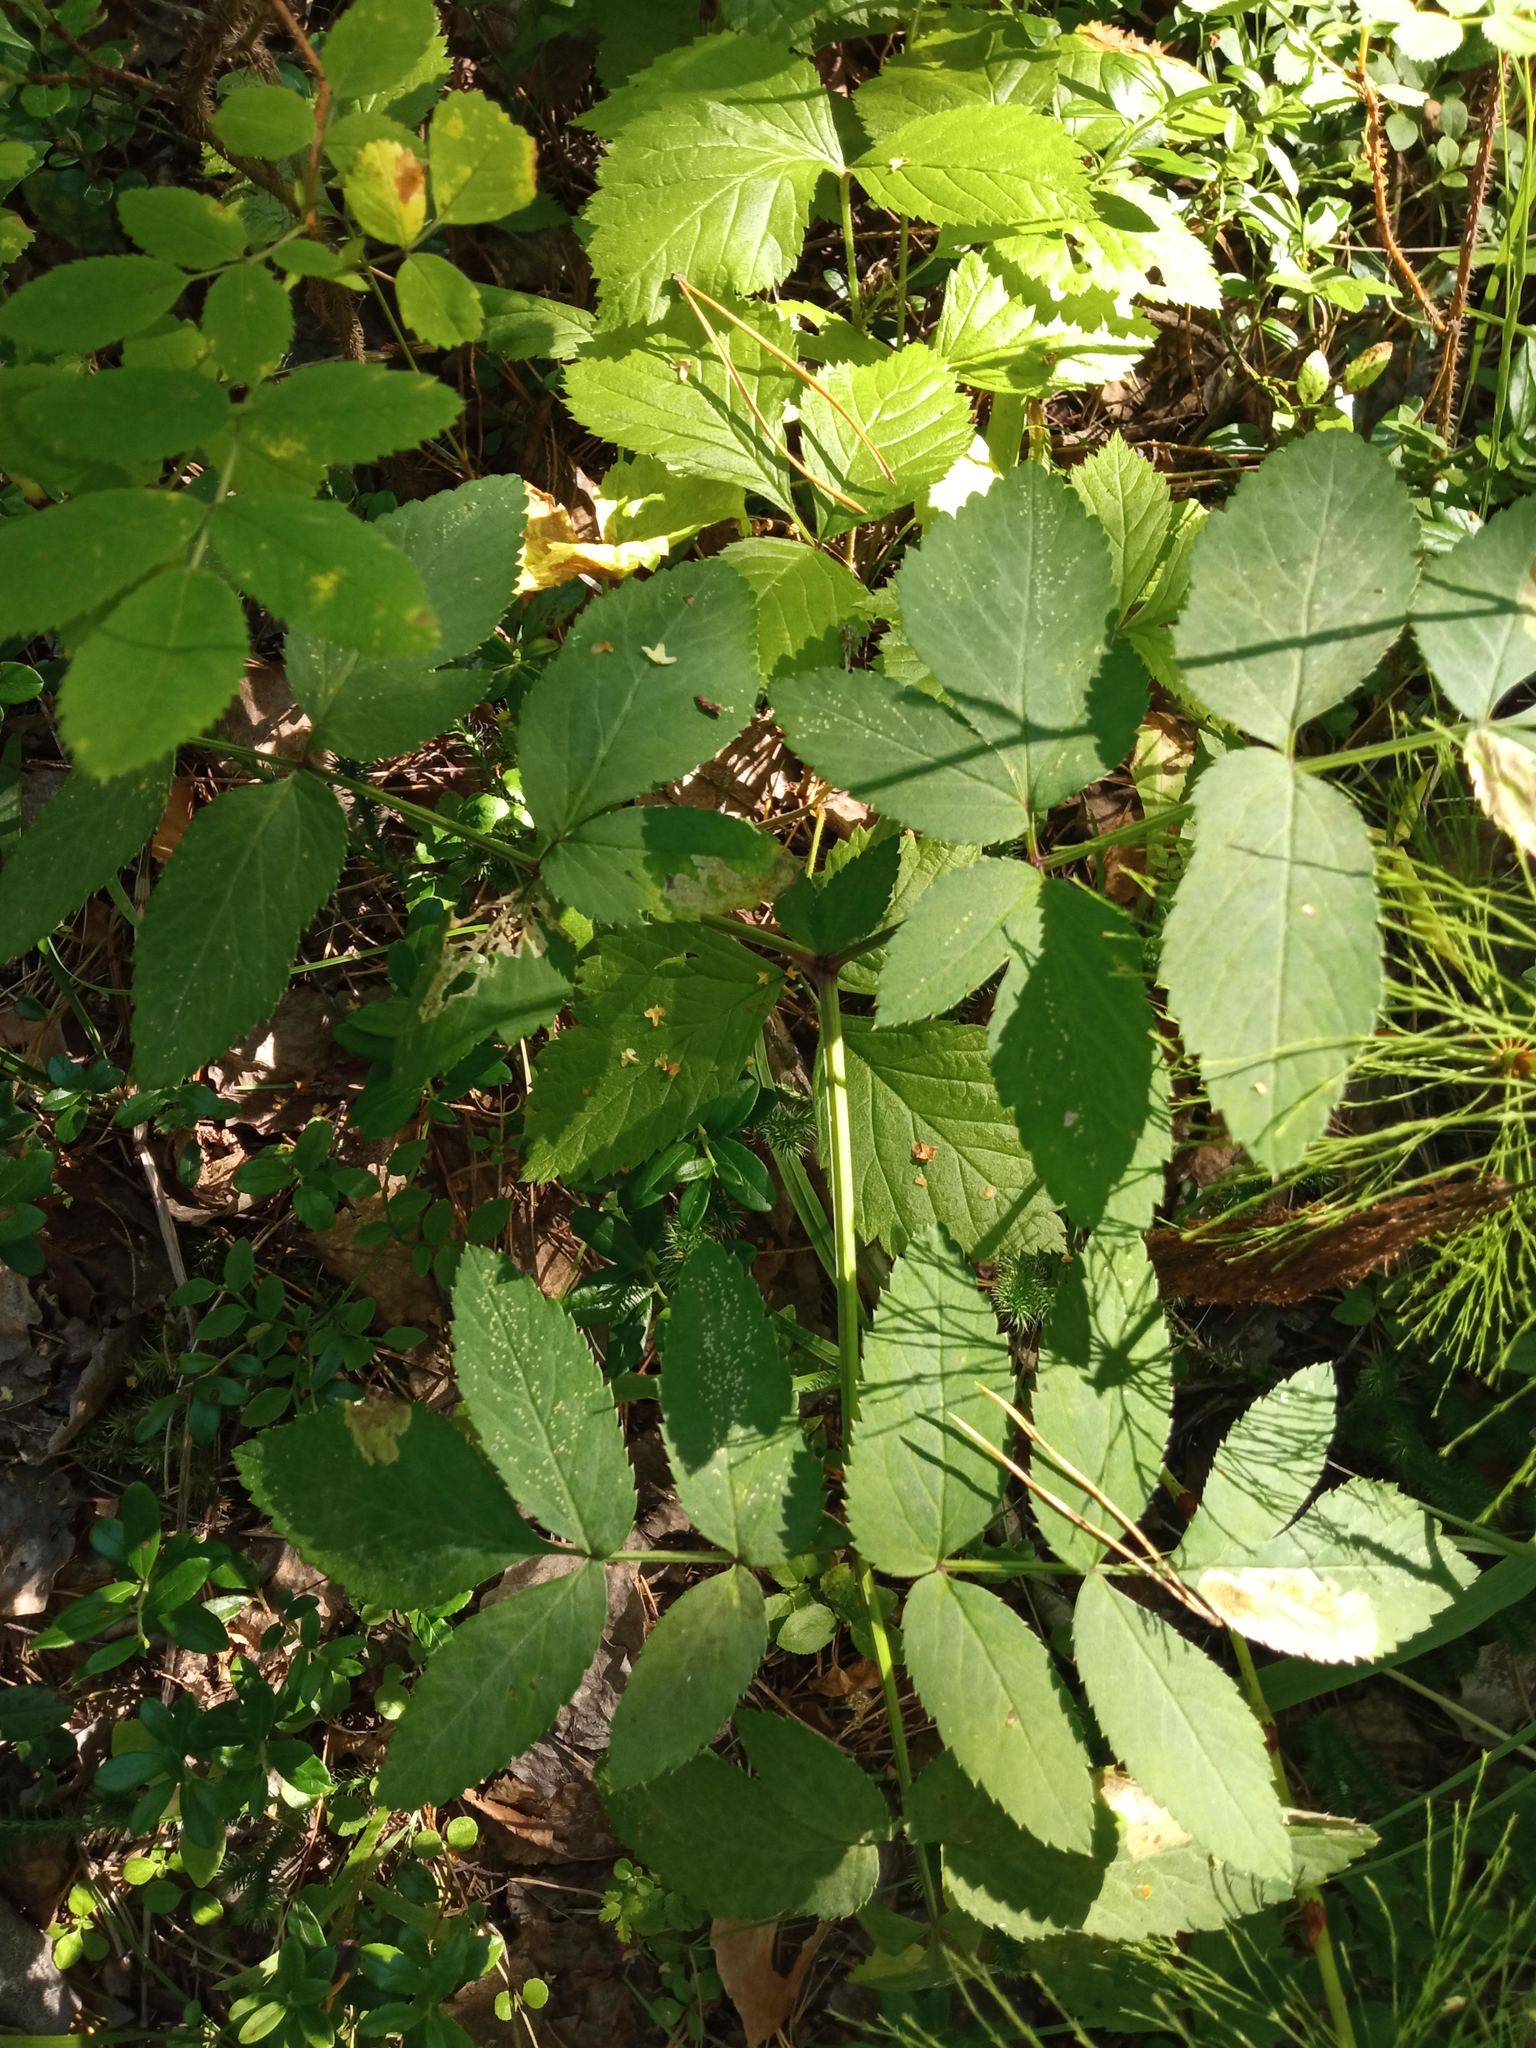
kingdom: Plantae
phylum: Tracheophyta
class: Magnoliopsida
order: Apiales
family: Apiaceae
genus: Angelica
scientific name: Angelica sylvestris
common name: Wild angelica
